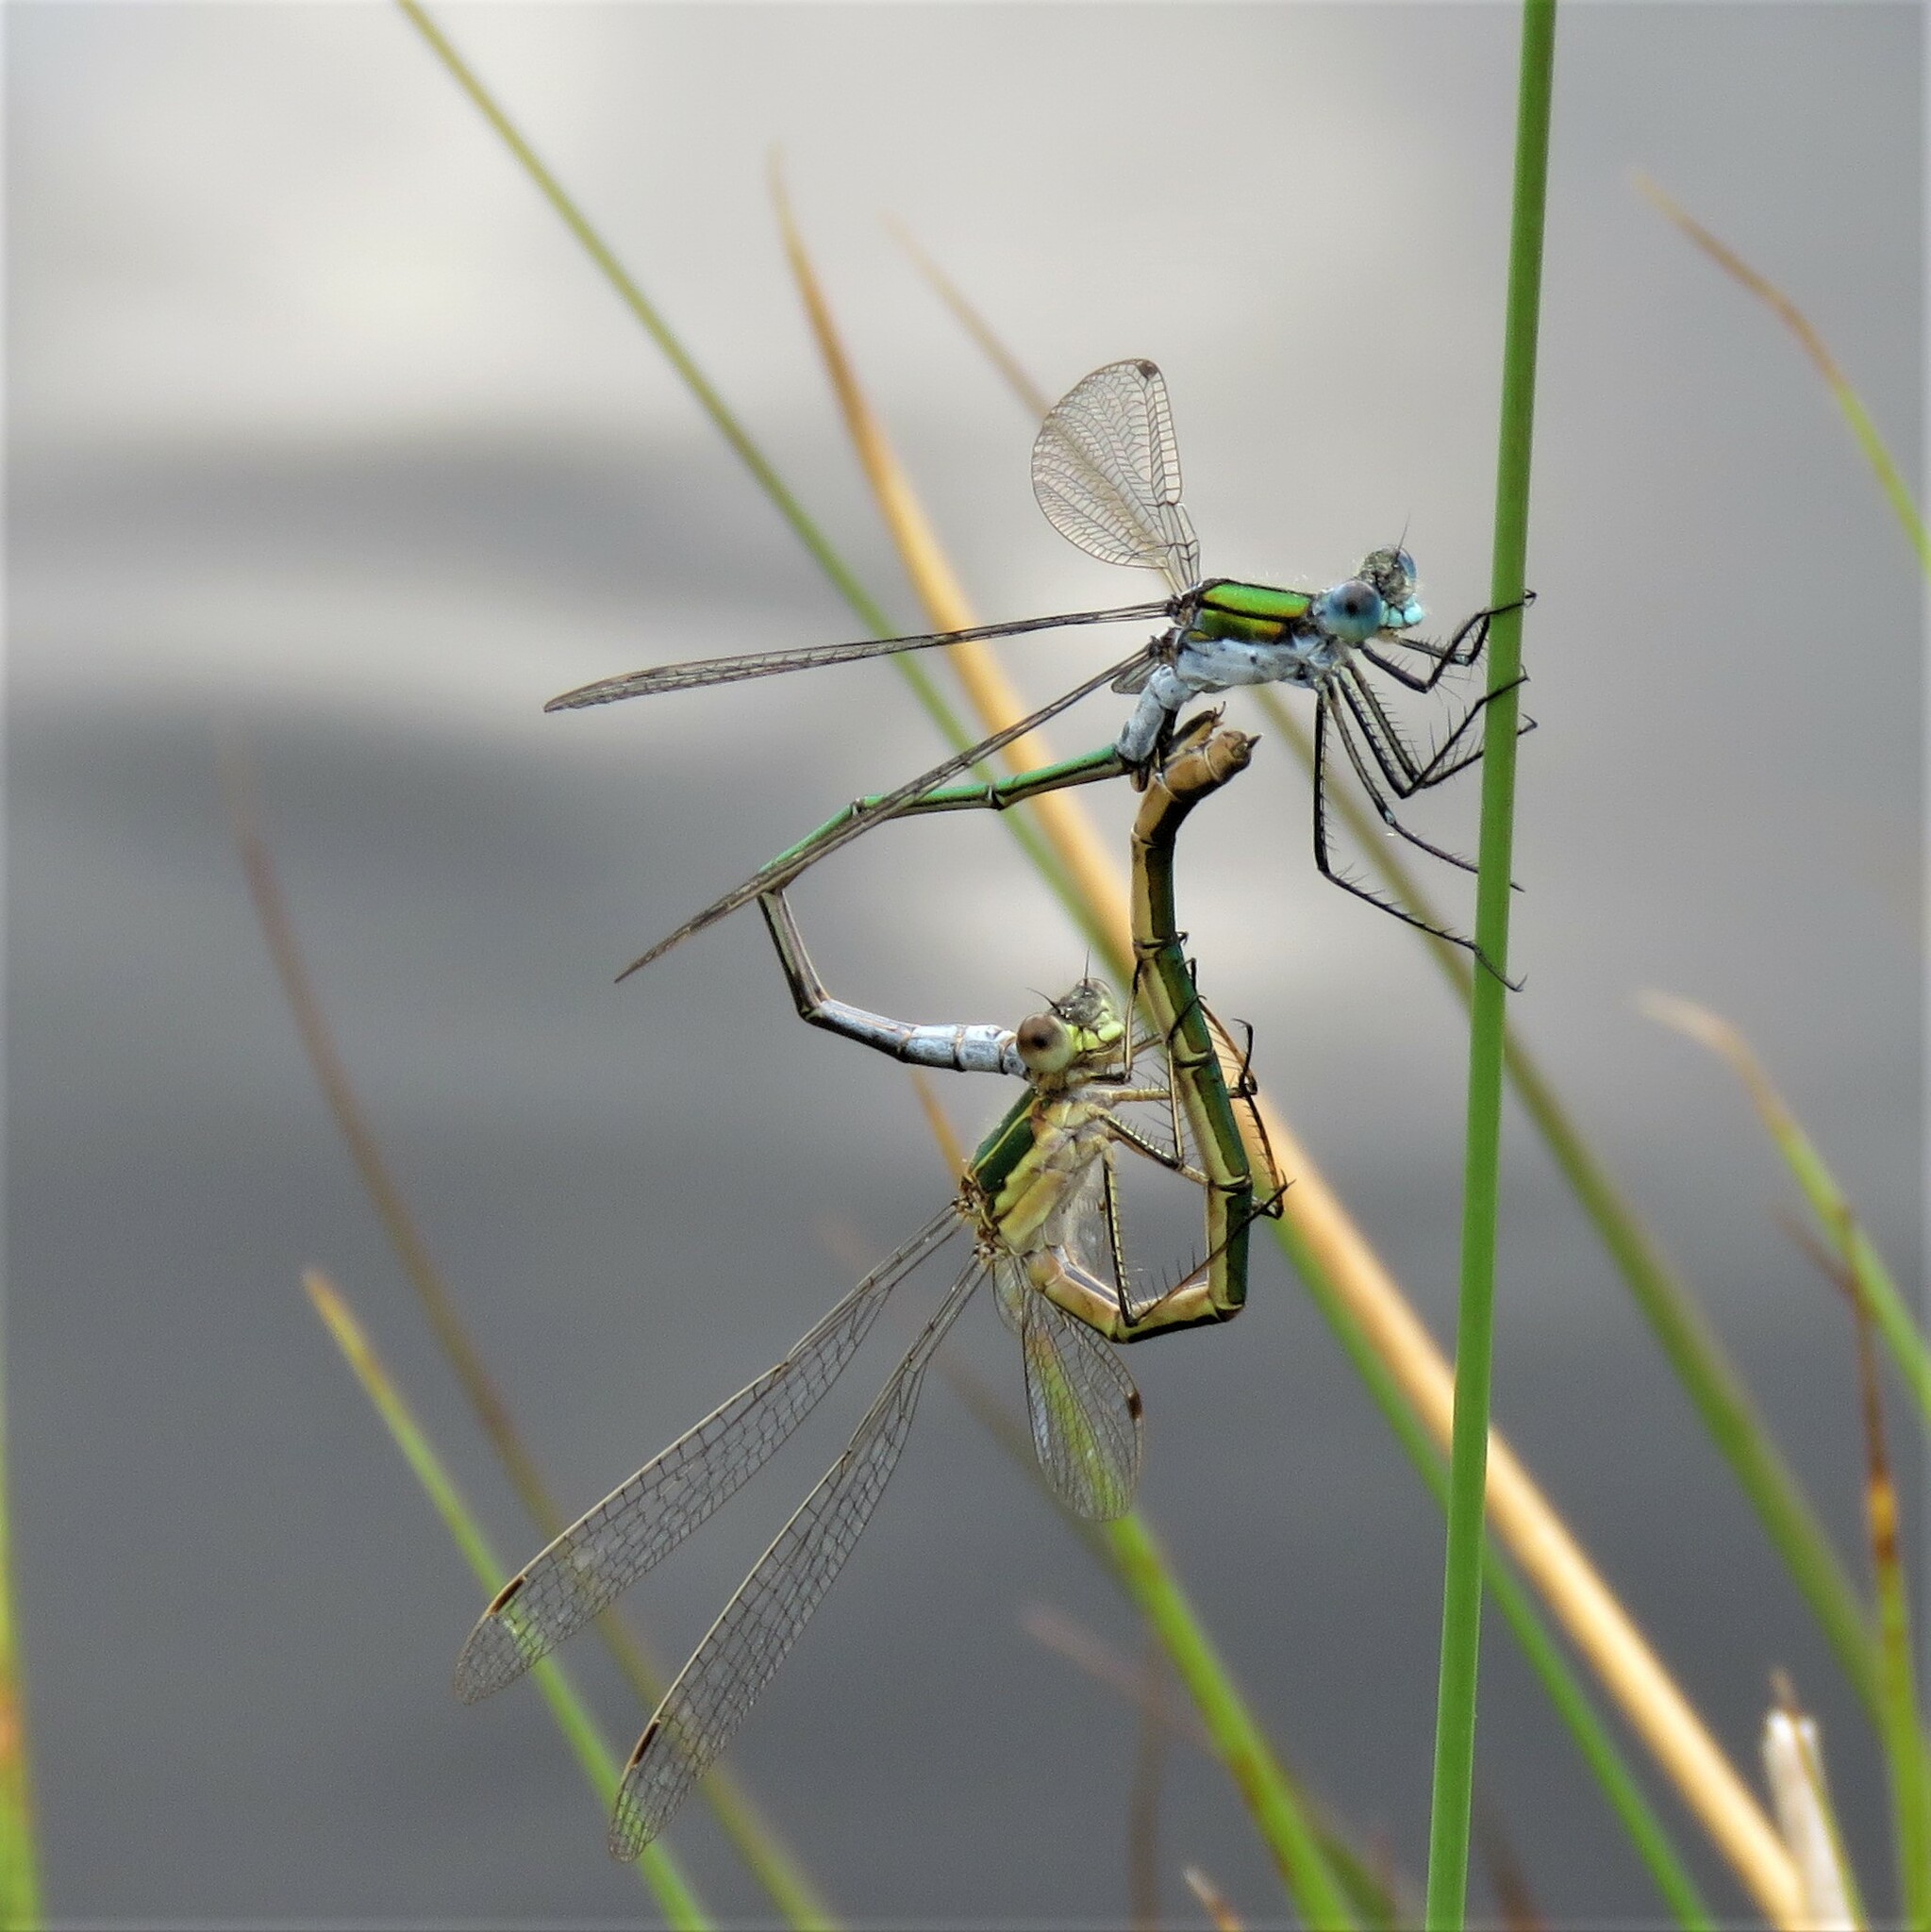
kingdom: Animalia
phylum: Arthropoda
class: Insecta
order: Odonata
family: Lestidae
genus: Lestes
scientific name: Lestes sponsa
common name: Common spreadwing
